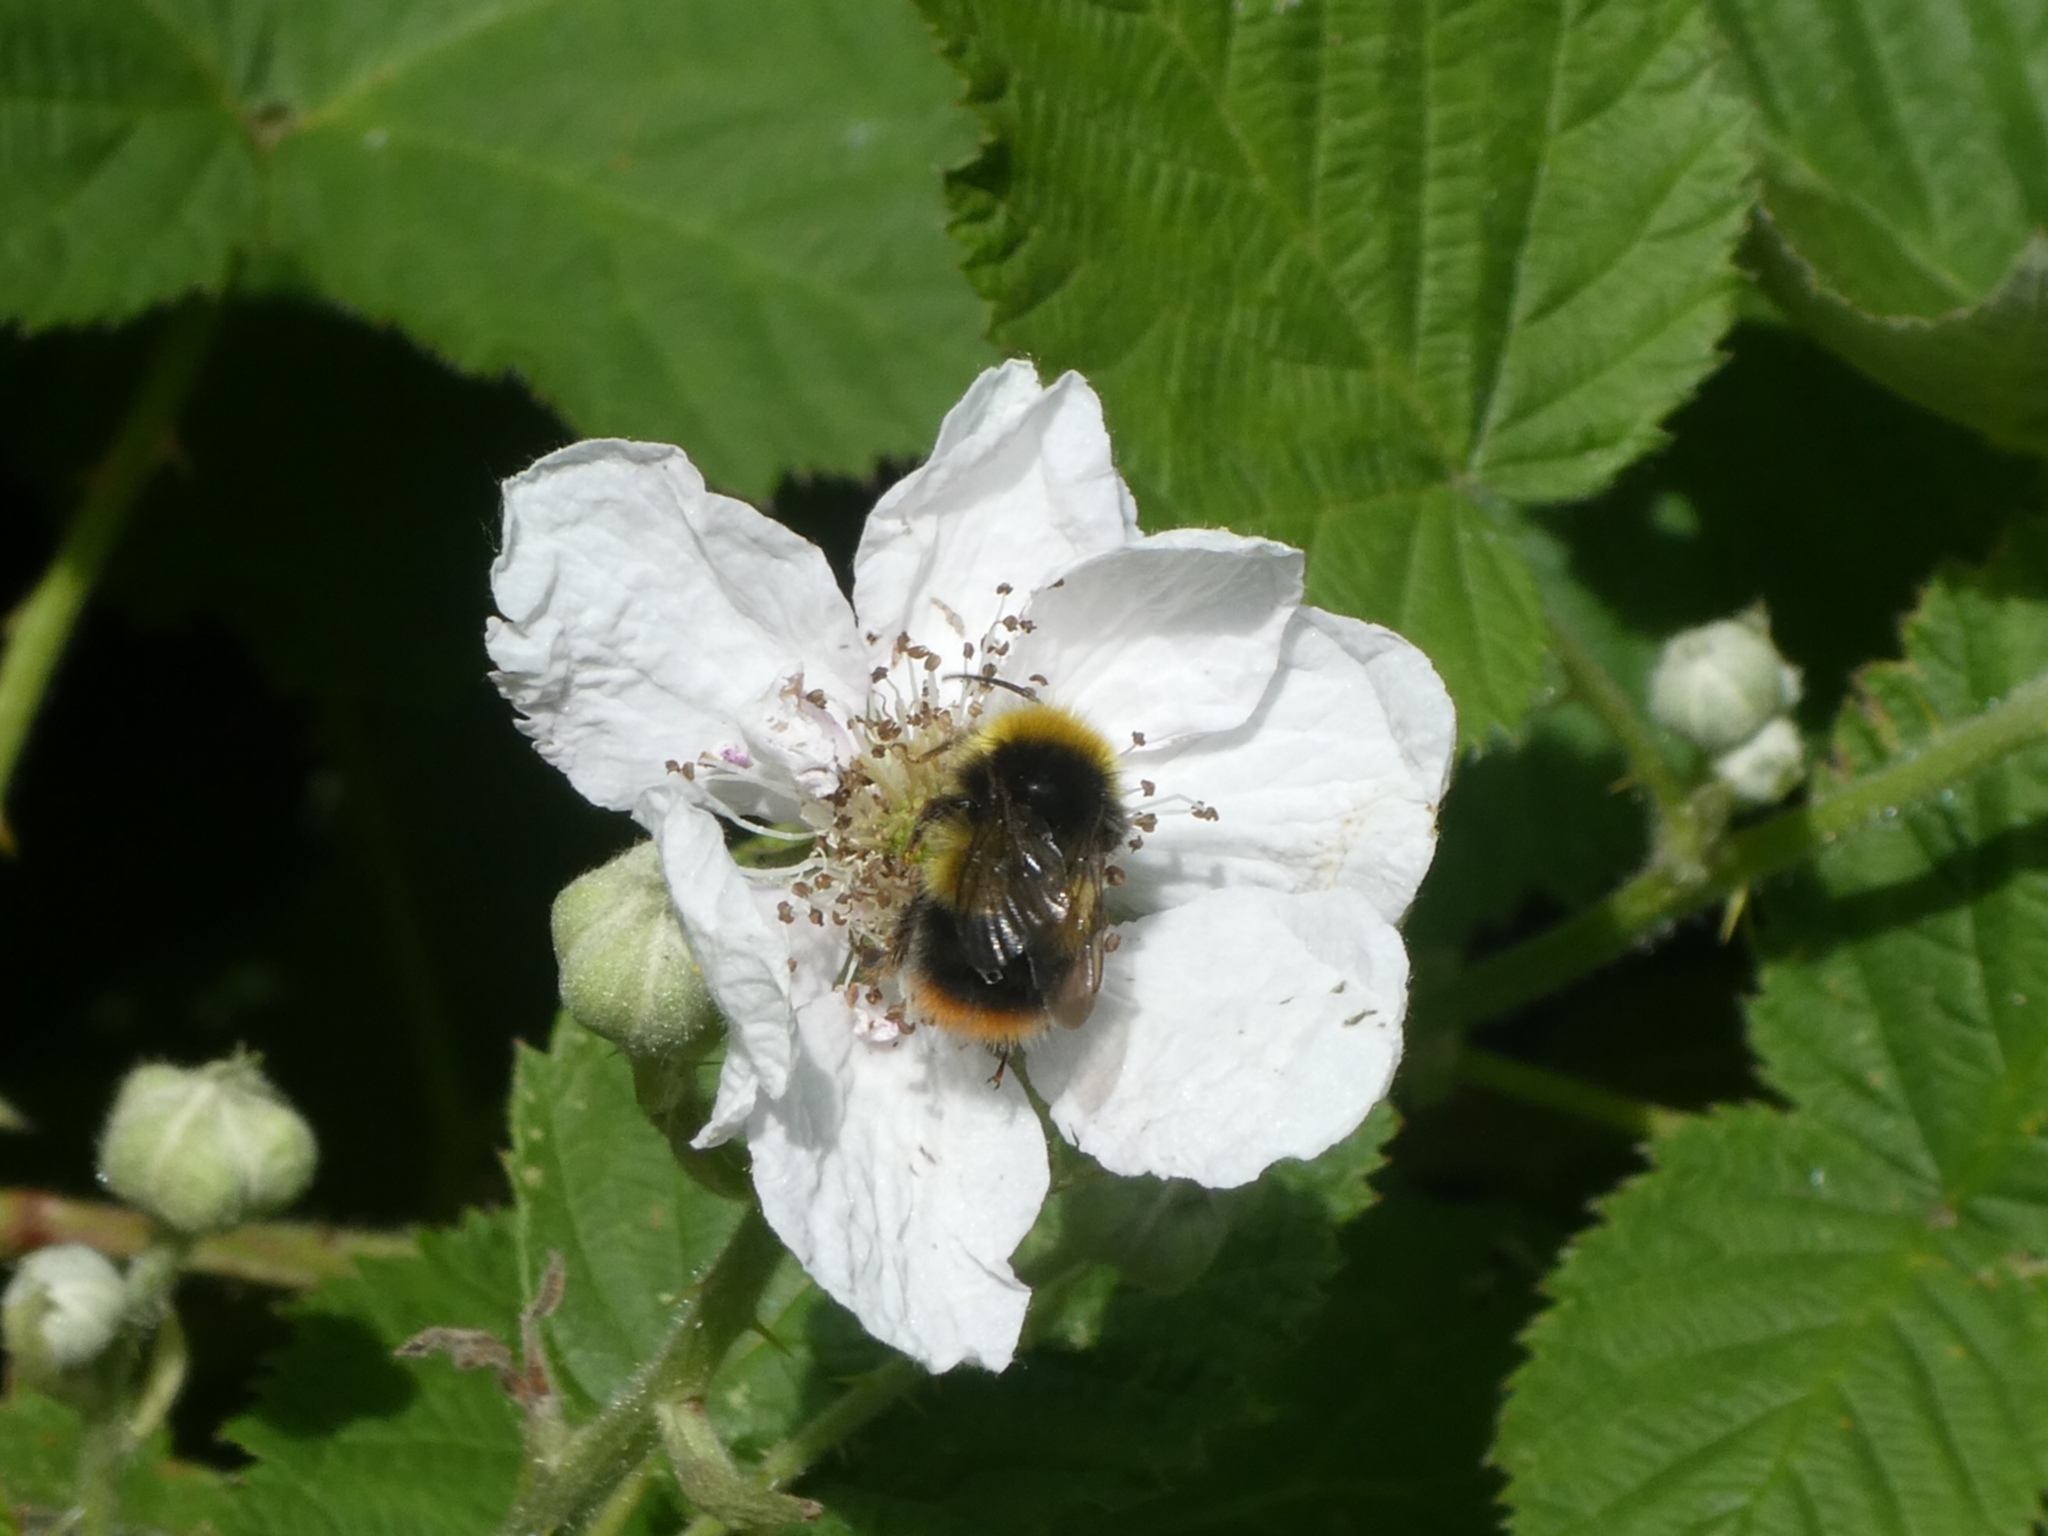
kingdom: Animalia
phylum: Arthropoda
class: Insecta
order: Hymenoptera
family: Apidae
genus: Bombus
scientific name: Bombus pratorum
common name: Early humble-bee
